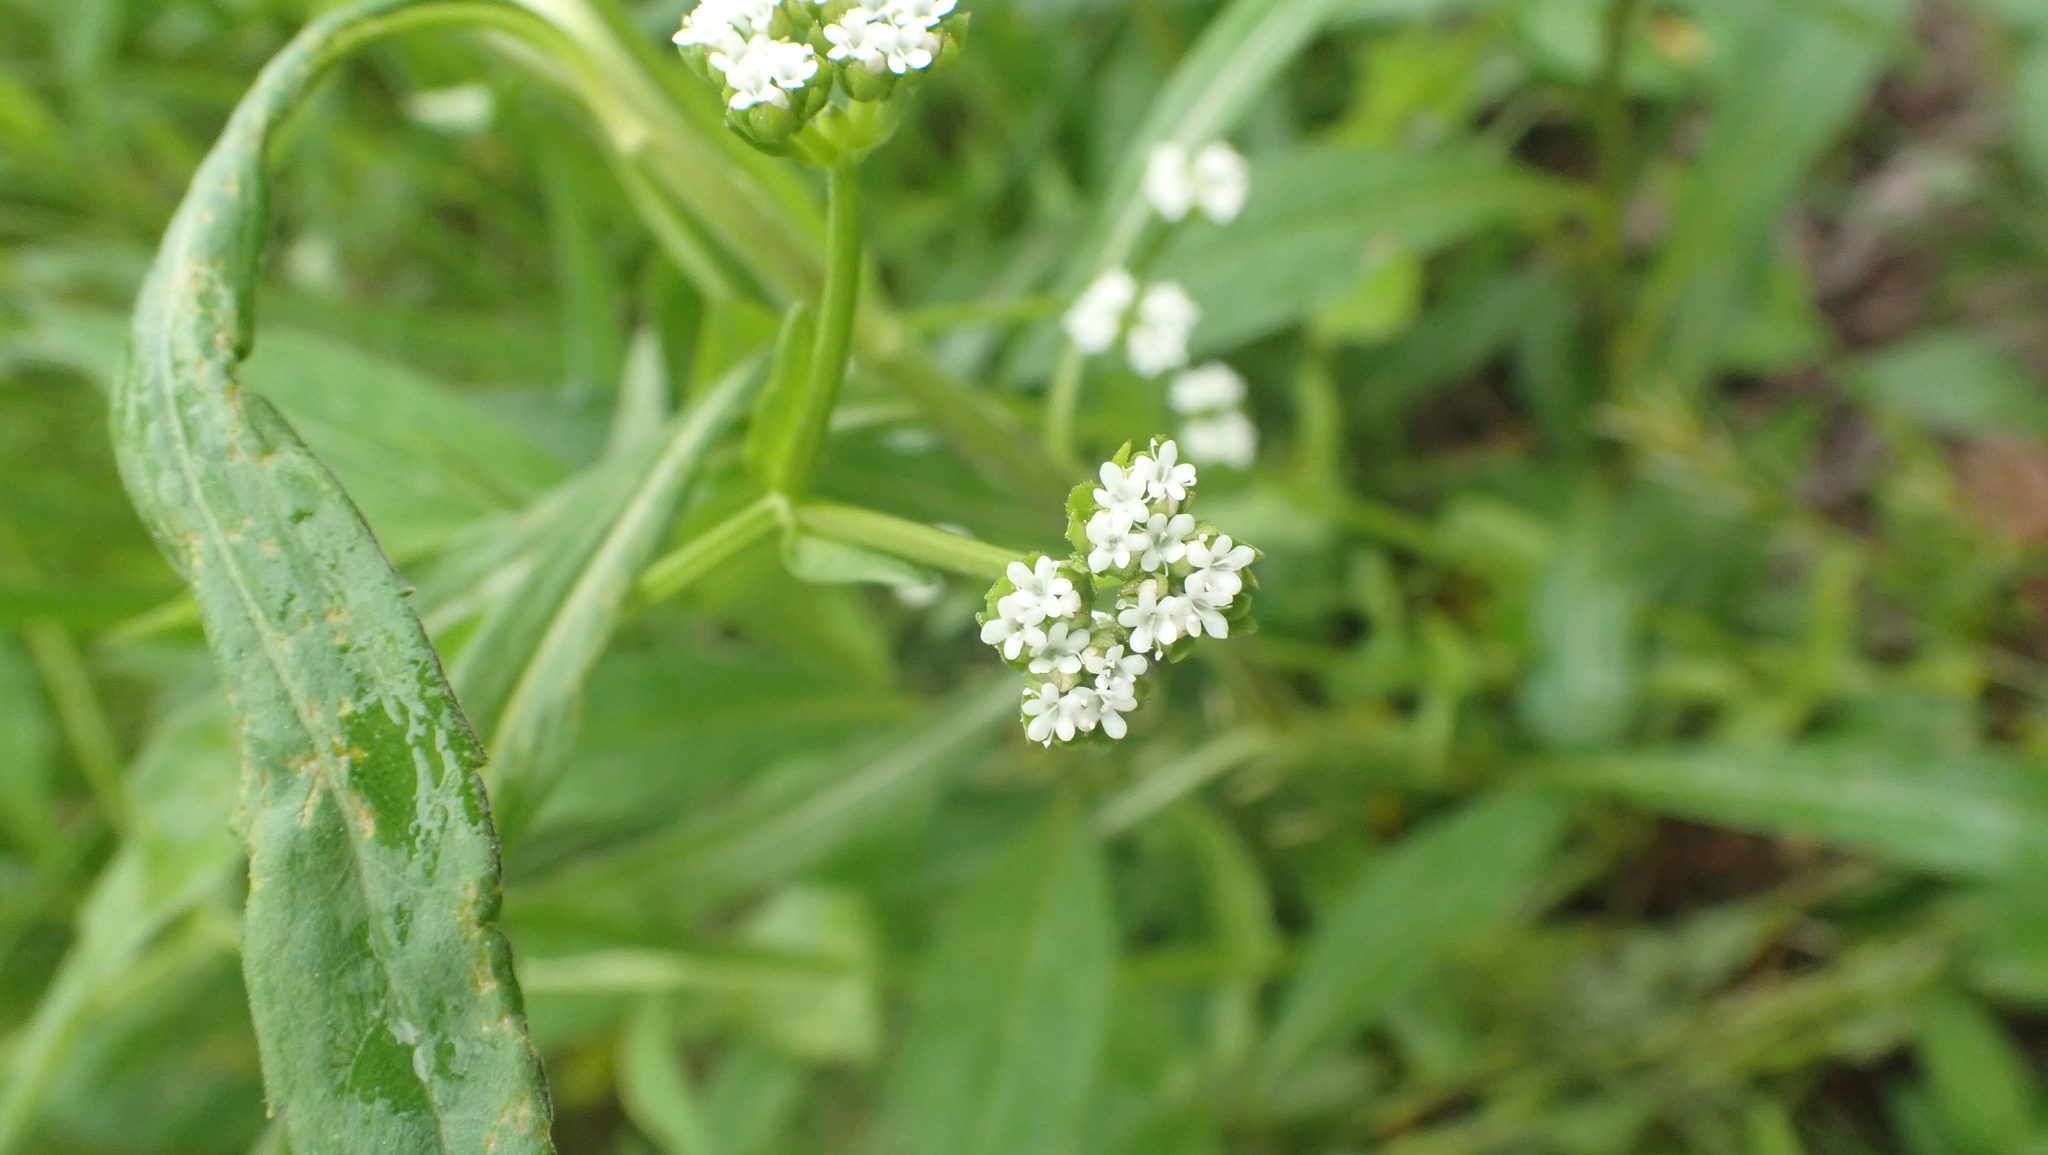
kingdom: Plantae
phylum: Tracheophyta
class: Magnoliopsida
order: Dipsacales
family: Caprifoliaceae
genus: Valerianella
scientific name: Valerianella radiata
